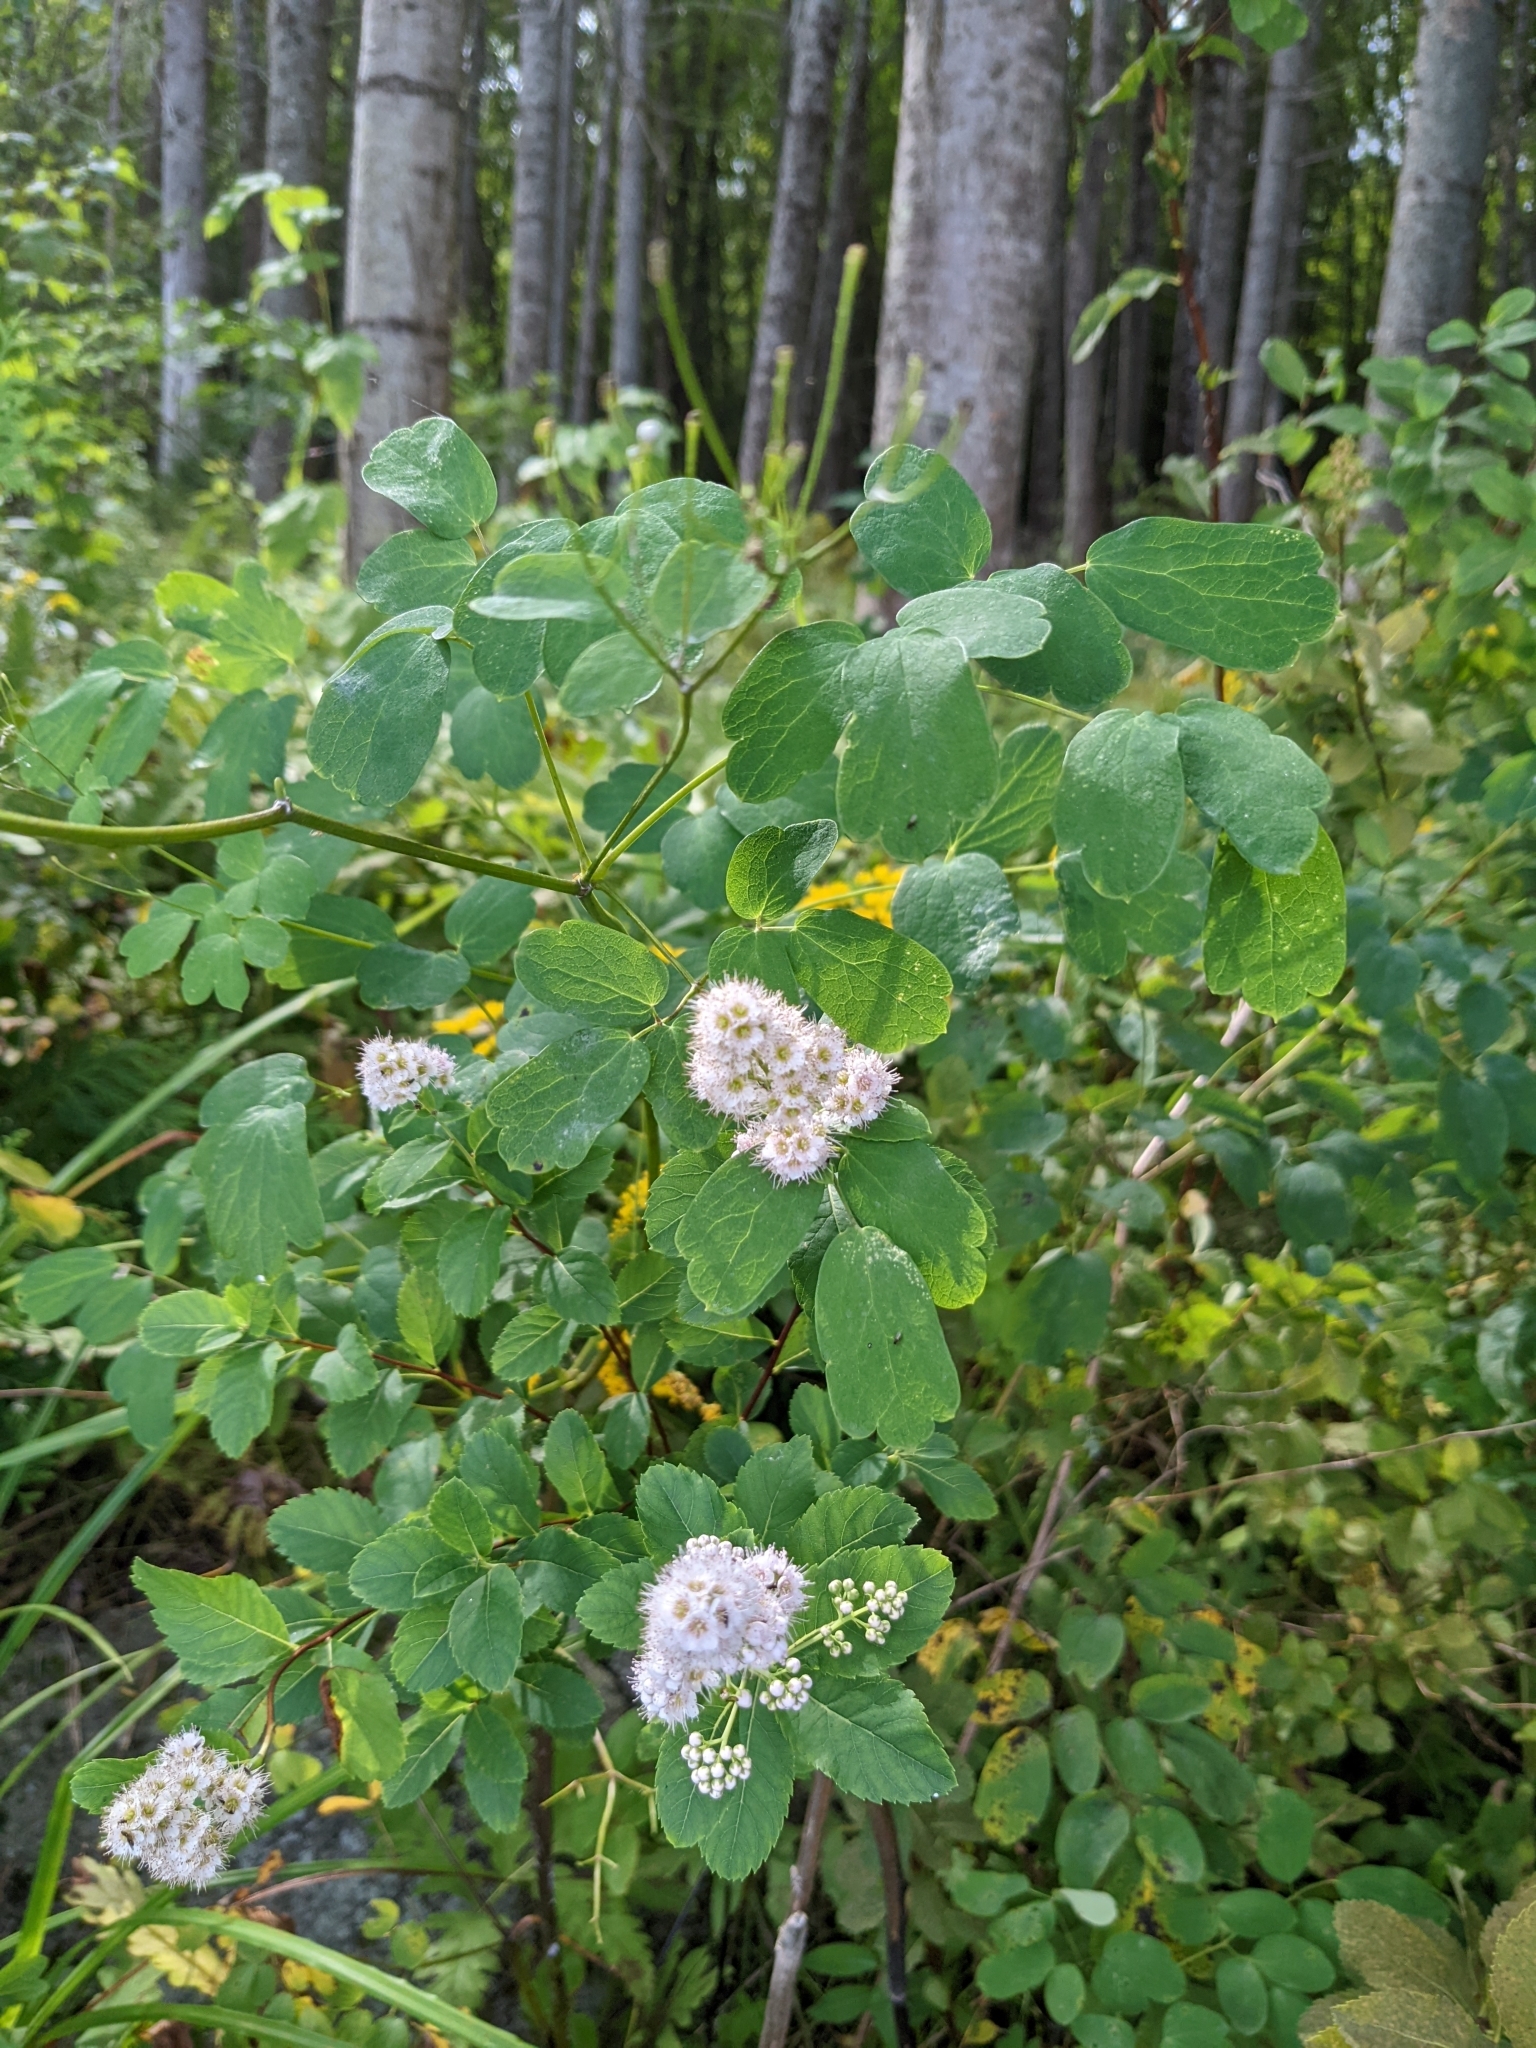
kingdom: Plantae
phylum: Tracheophyta
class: Magnoliopsida
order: Rosales
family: Rosaceae
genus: Spiraea
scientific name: Spiraea alba
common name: Pale bridewort
